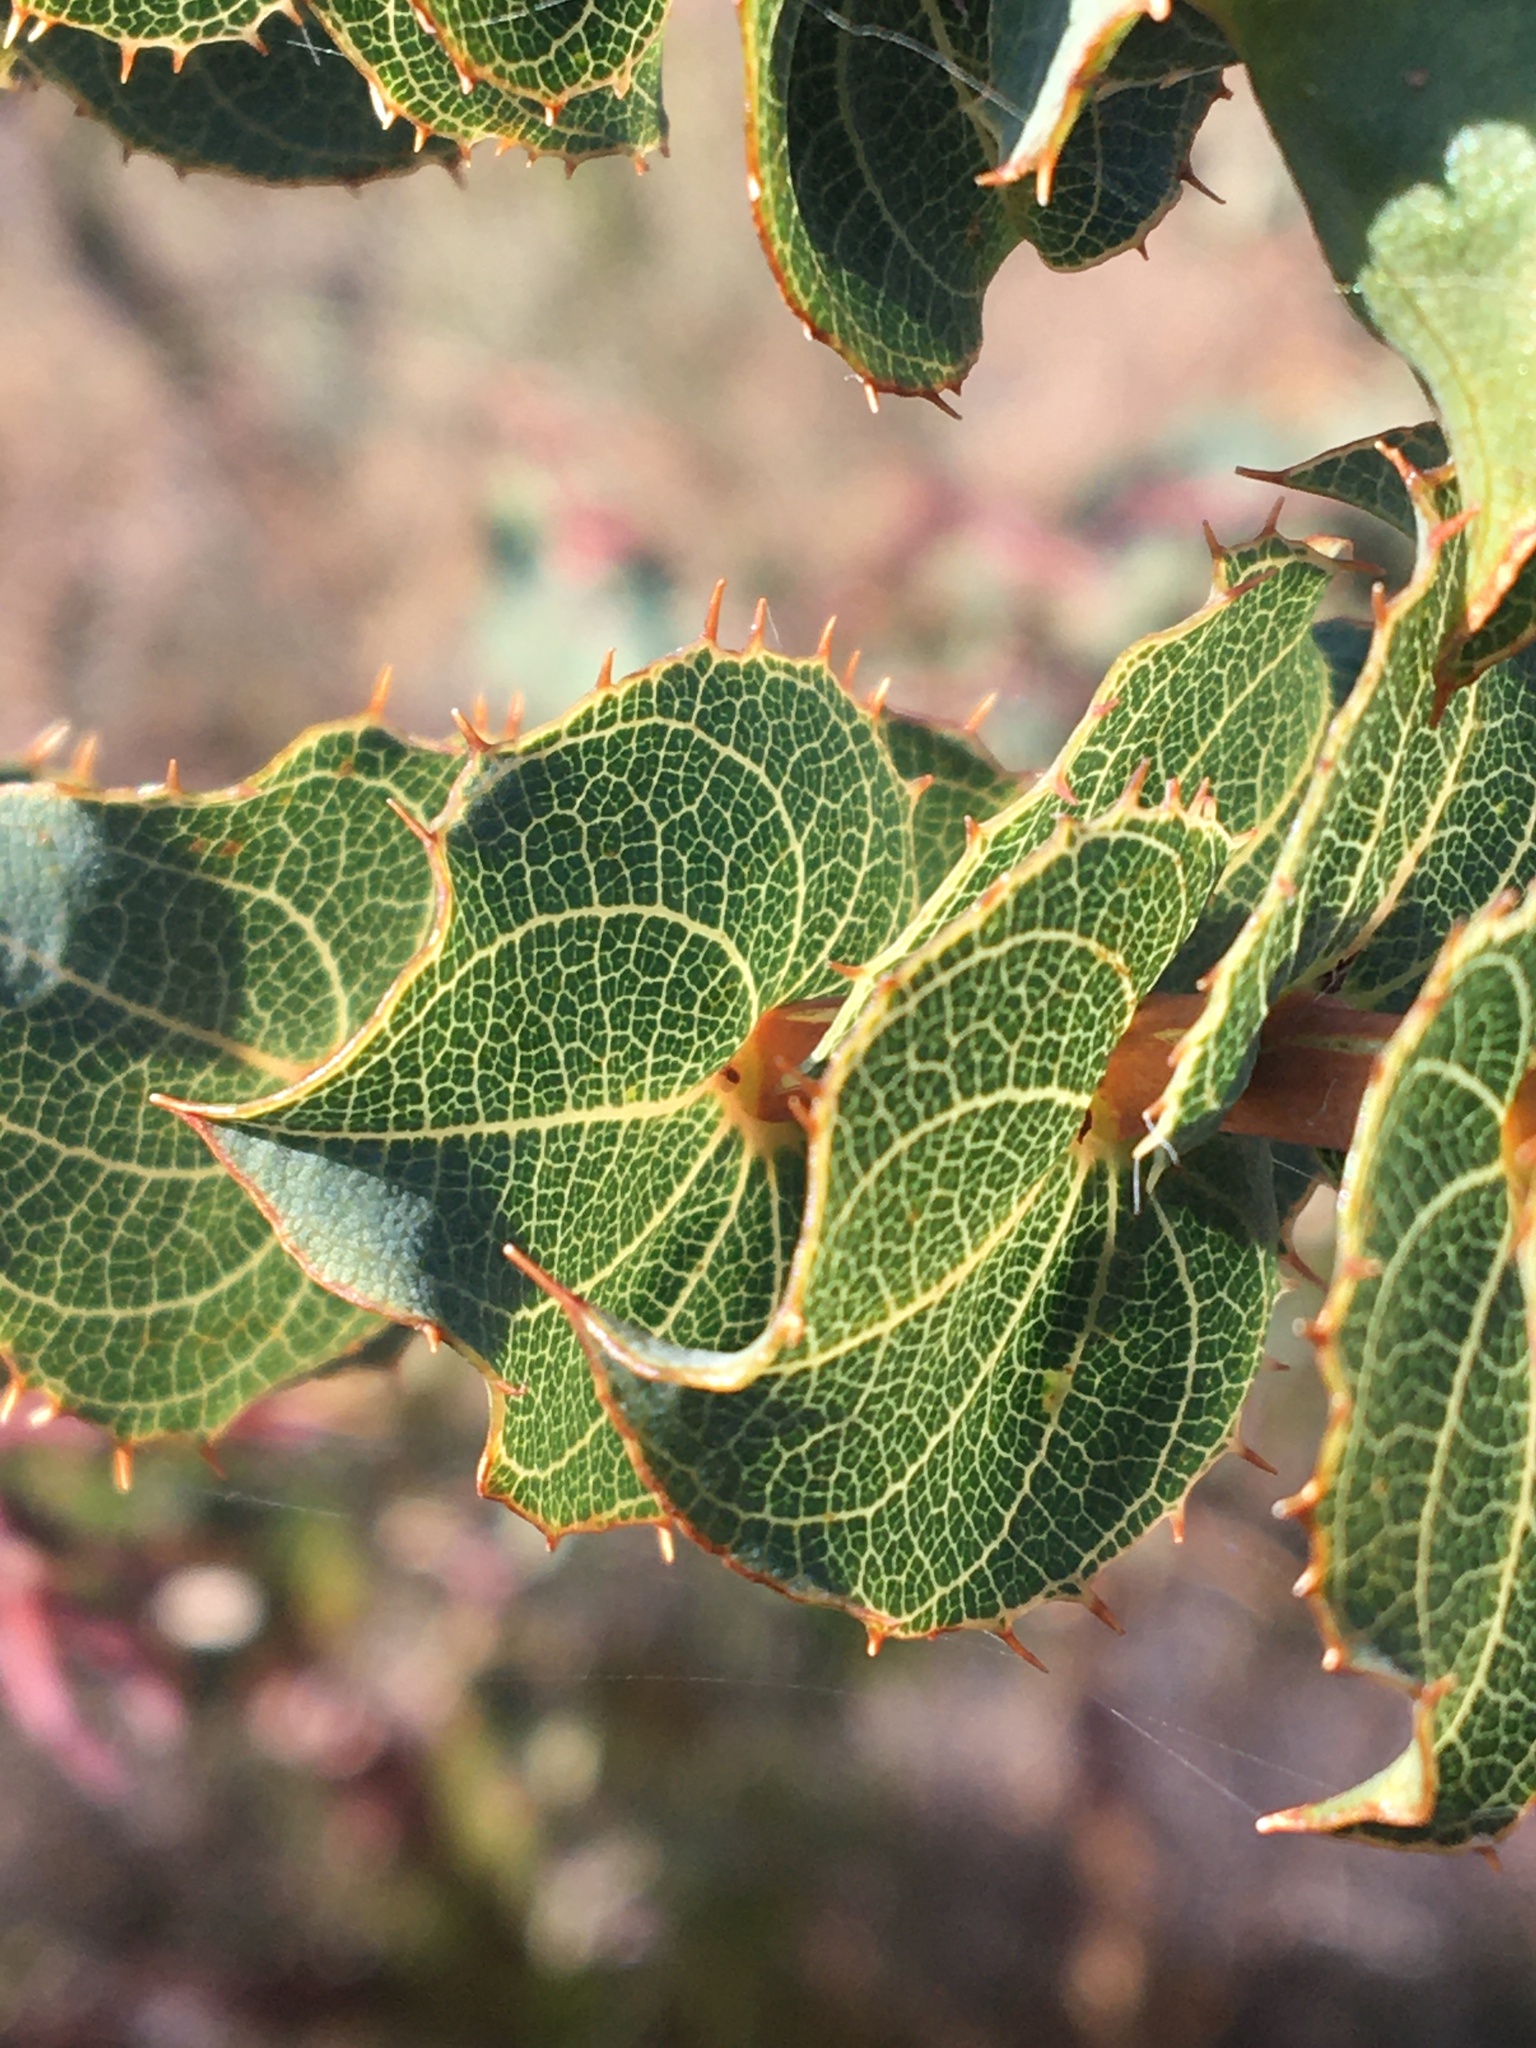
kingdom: Plantae
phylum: Tracheophyta
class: Magnoliopsida
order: Fabales
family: Fabaceae
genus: Aspalathus
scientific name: Aspalathus perfoliata
